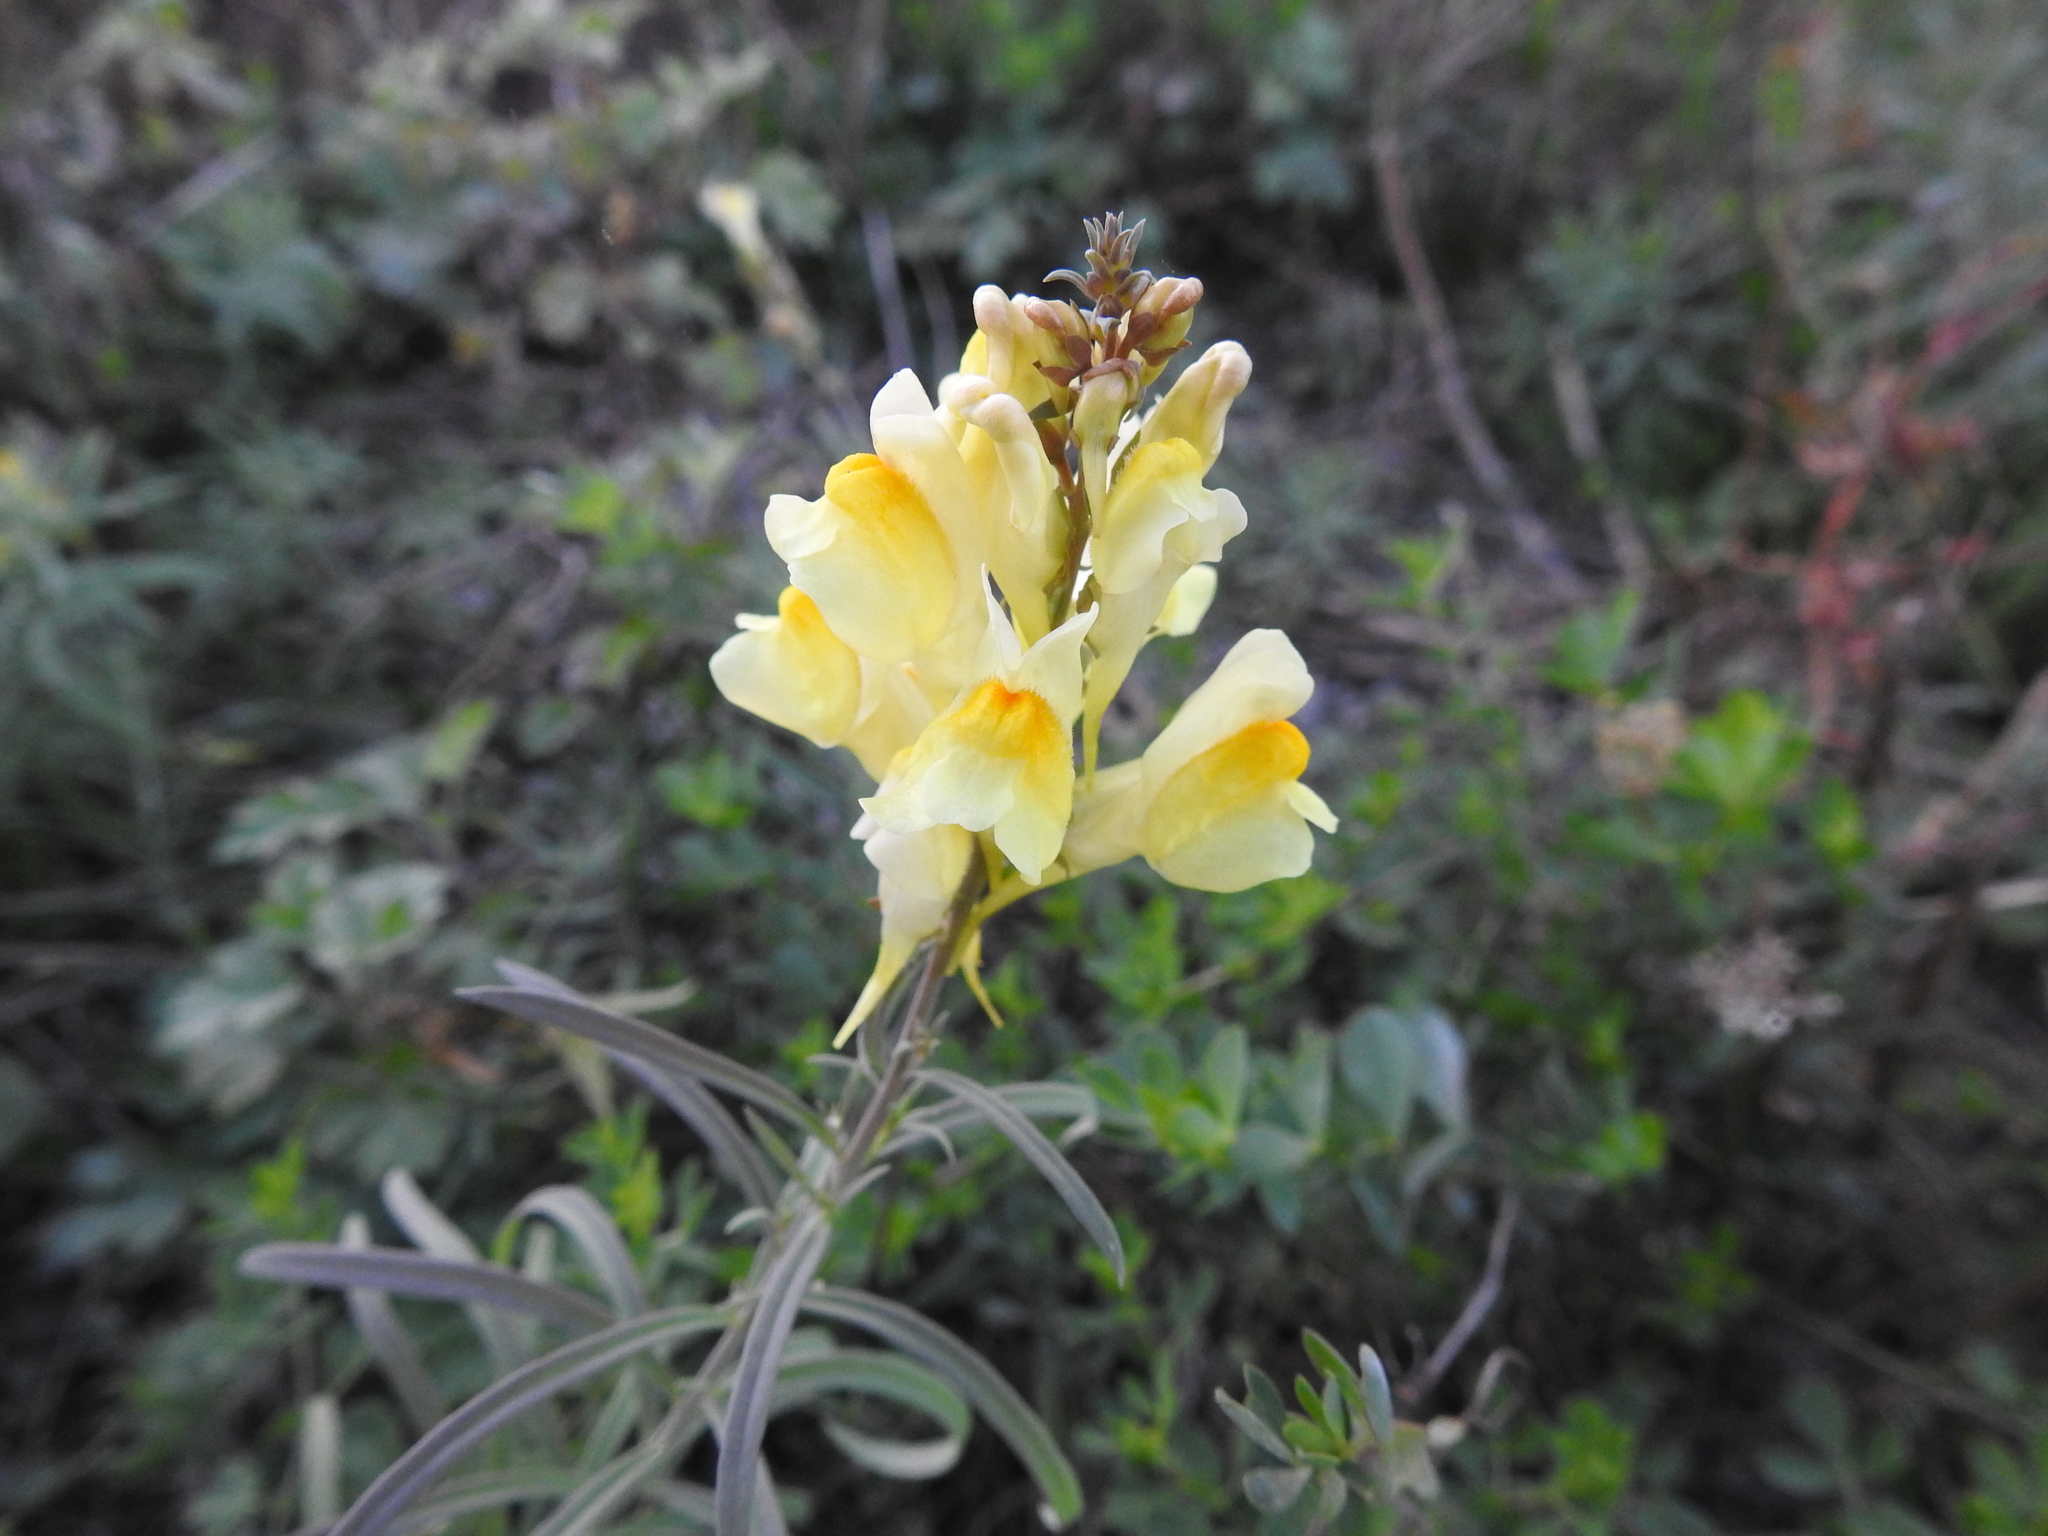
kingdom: Plantae
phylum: Tracheophyta
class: Magnoliopsida
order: Lamiales
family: Plantaginaceae
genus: Linaria
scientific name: Linaria vulgaris
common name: Butter and eggs
